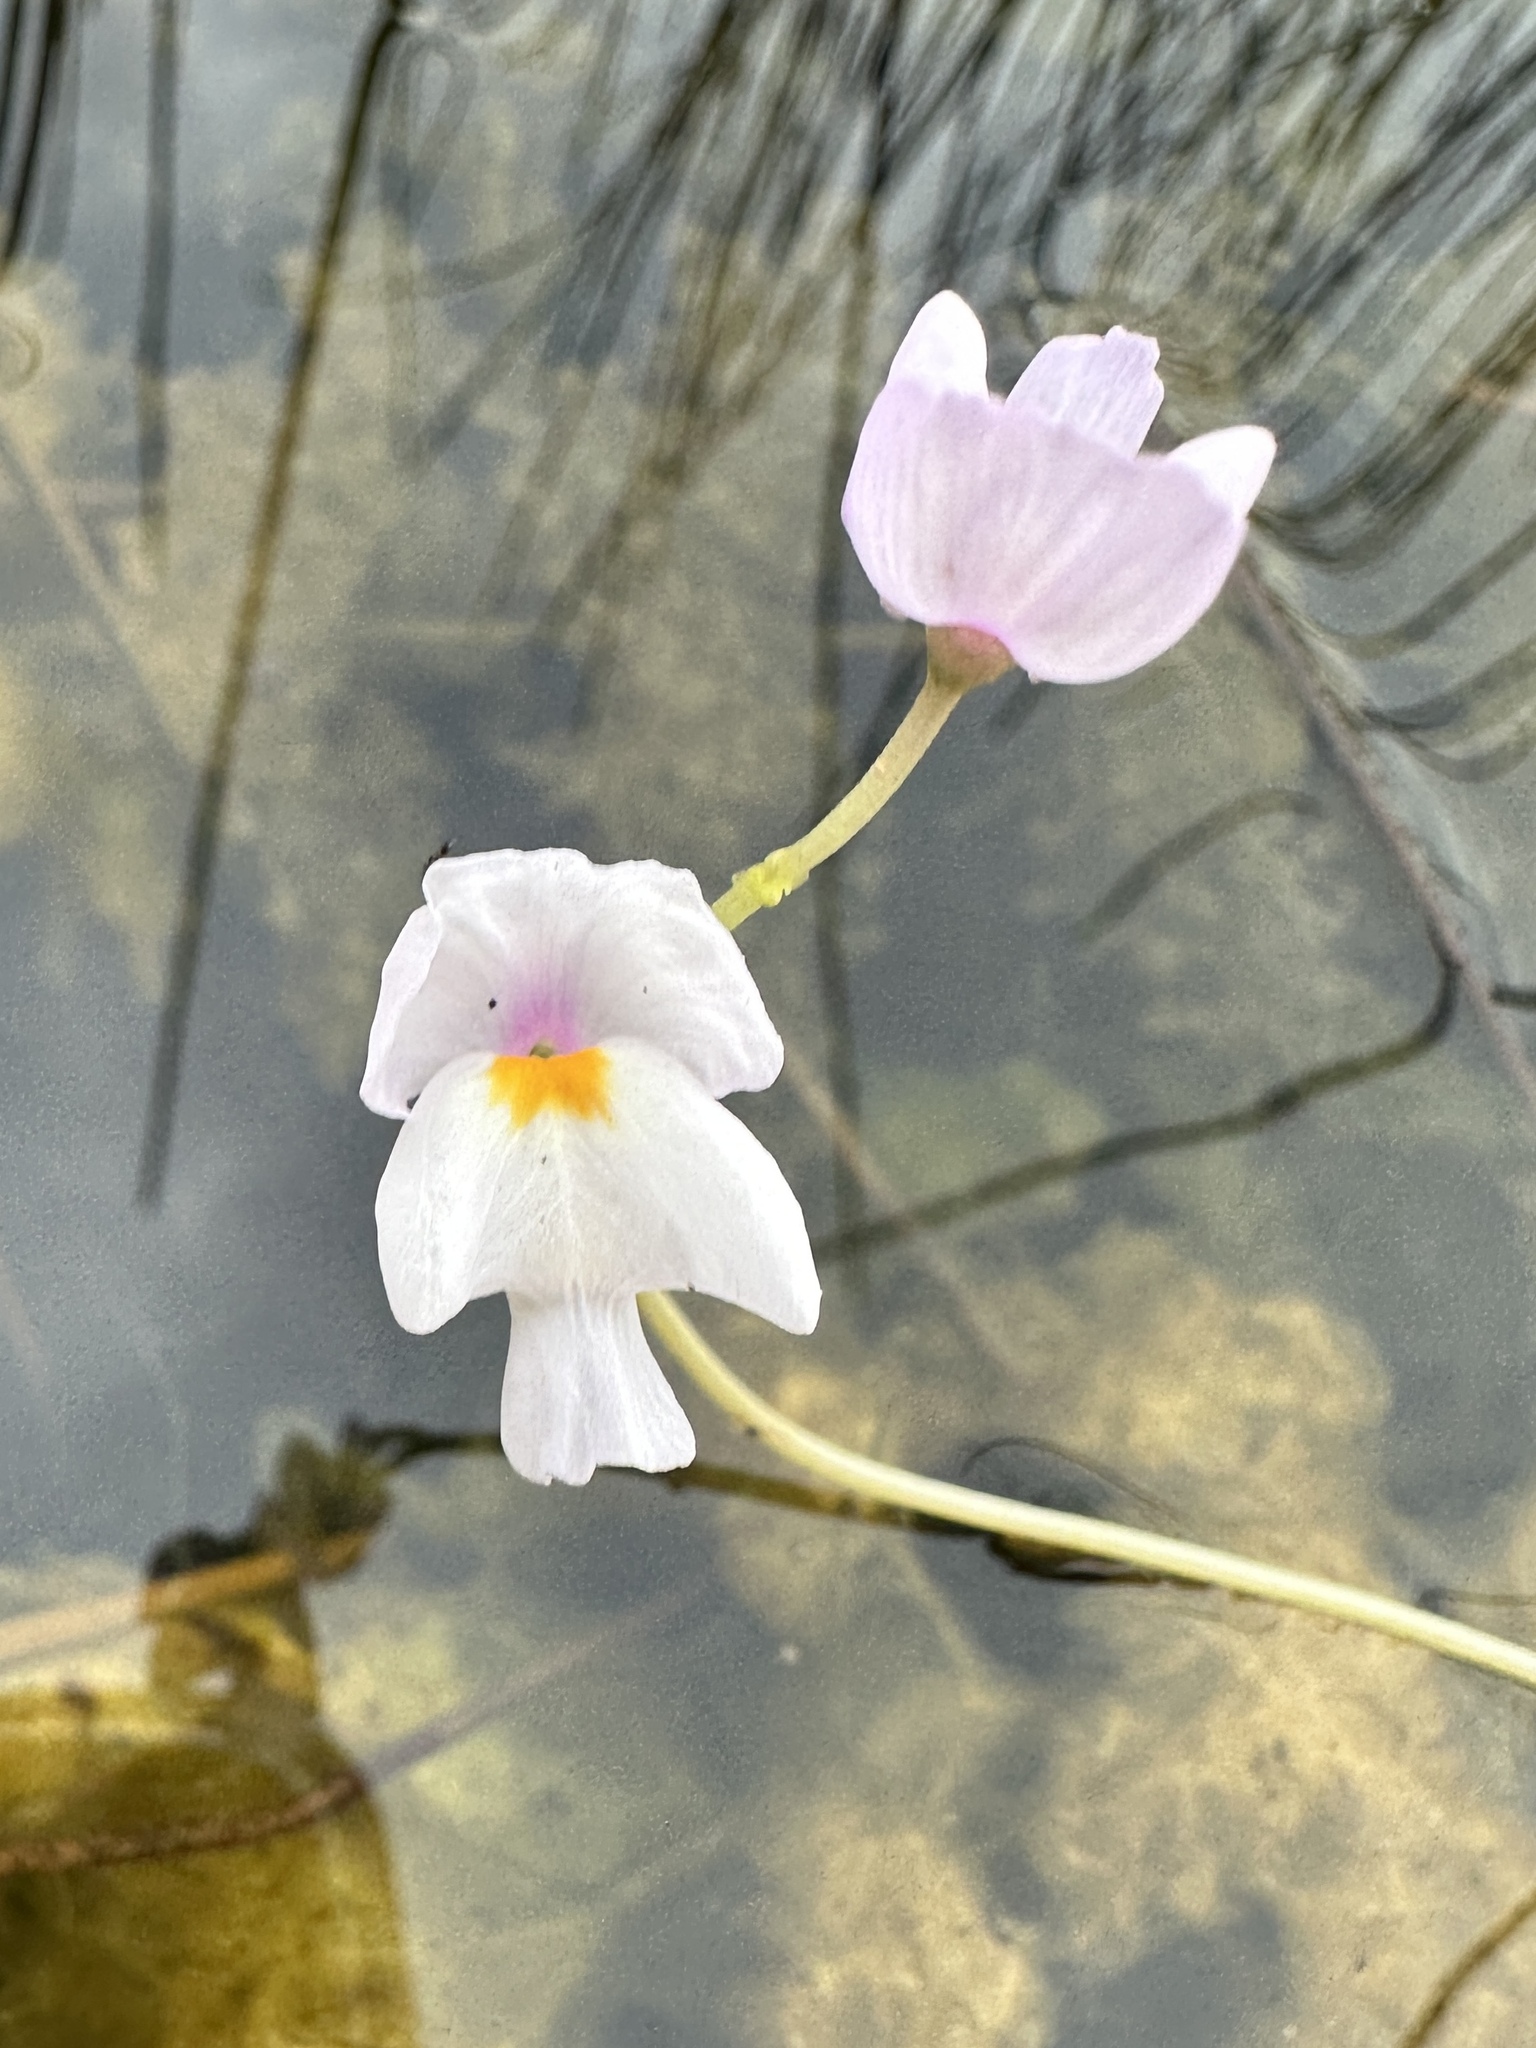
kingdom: Plantae
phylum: Tracheophyta
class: Magnoliopsida
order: Lamiales
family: Lentibulariaceae
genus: Utricularia
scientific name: Utricularia purpurea
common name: Eastern purple bladderwort
